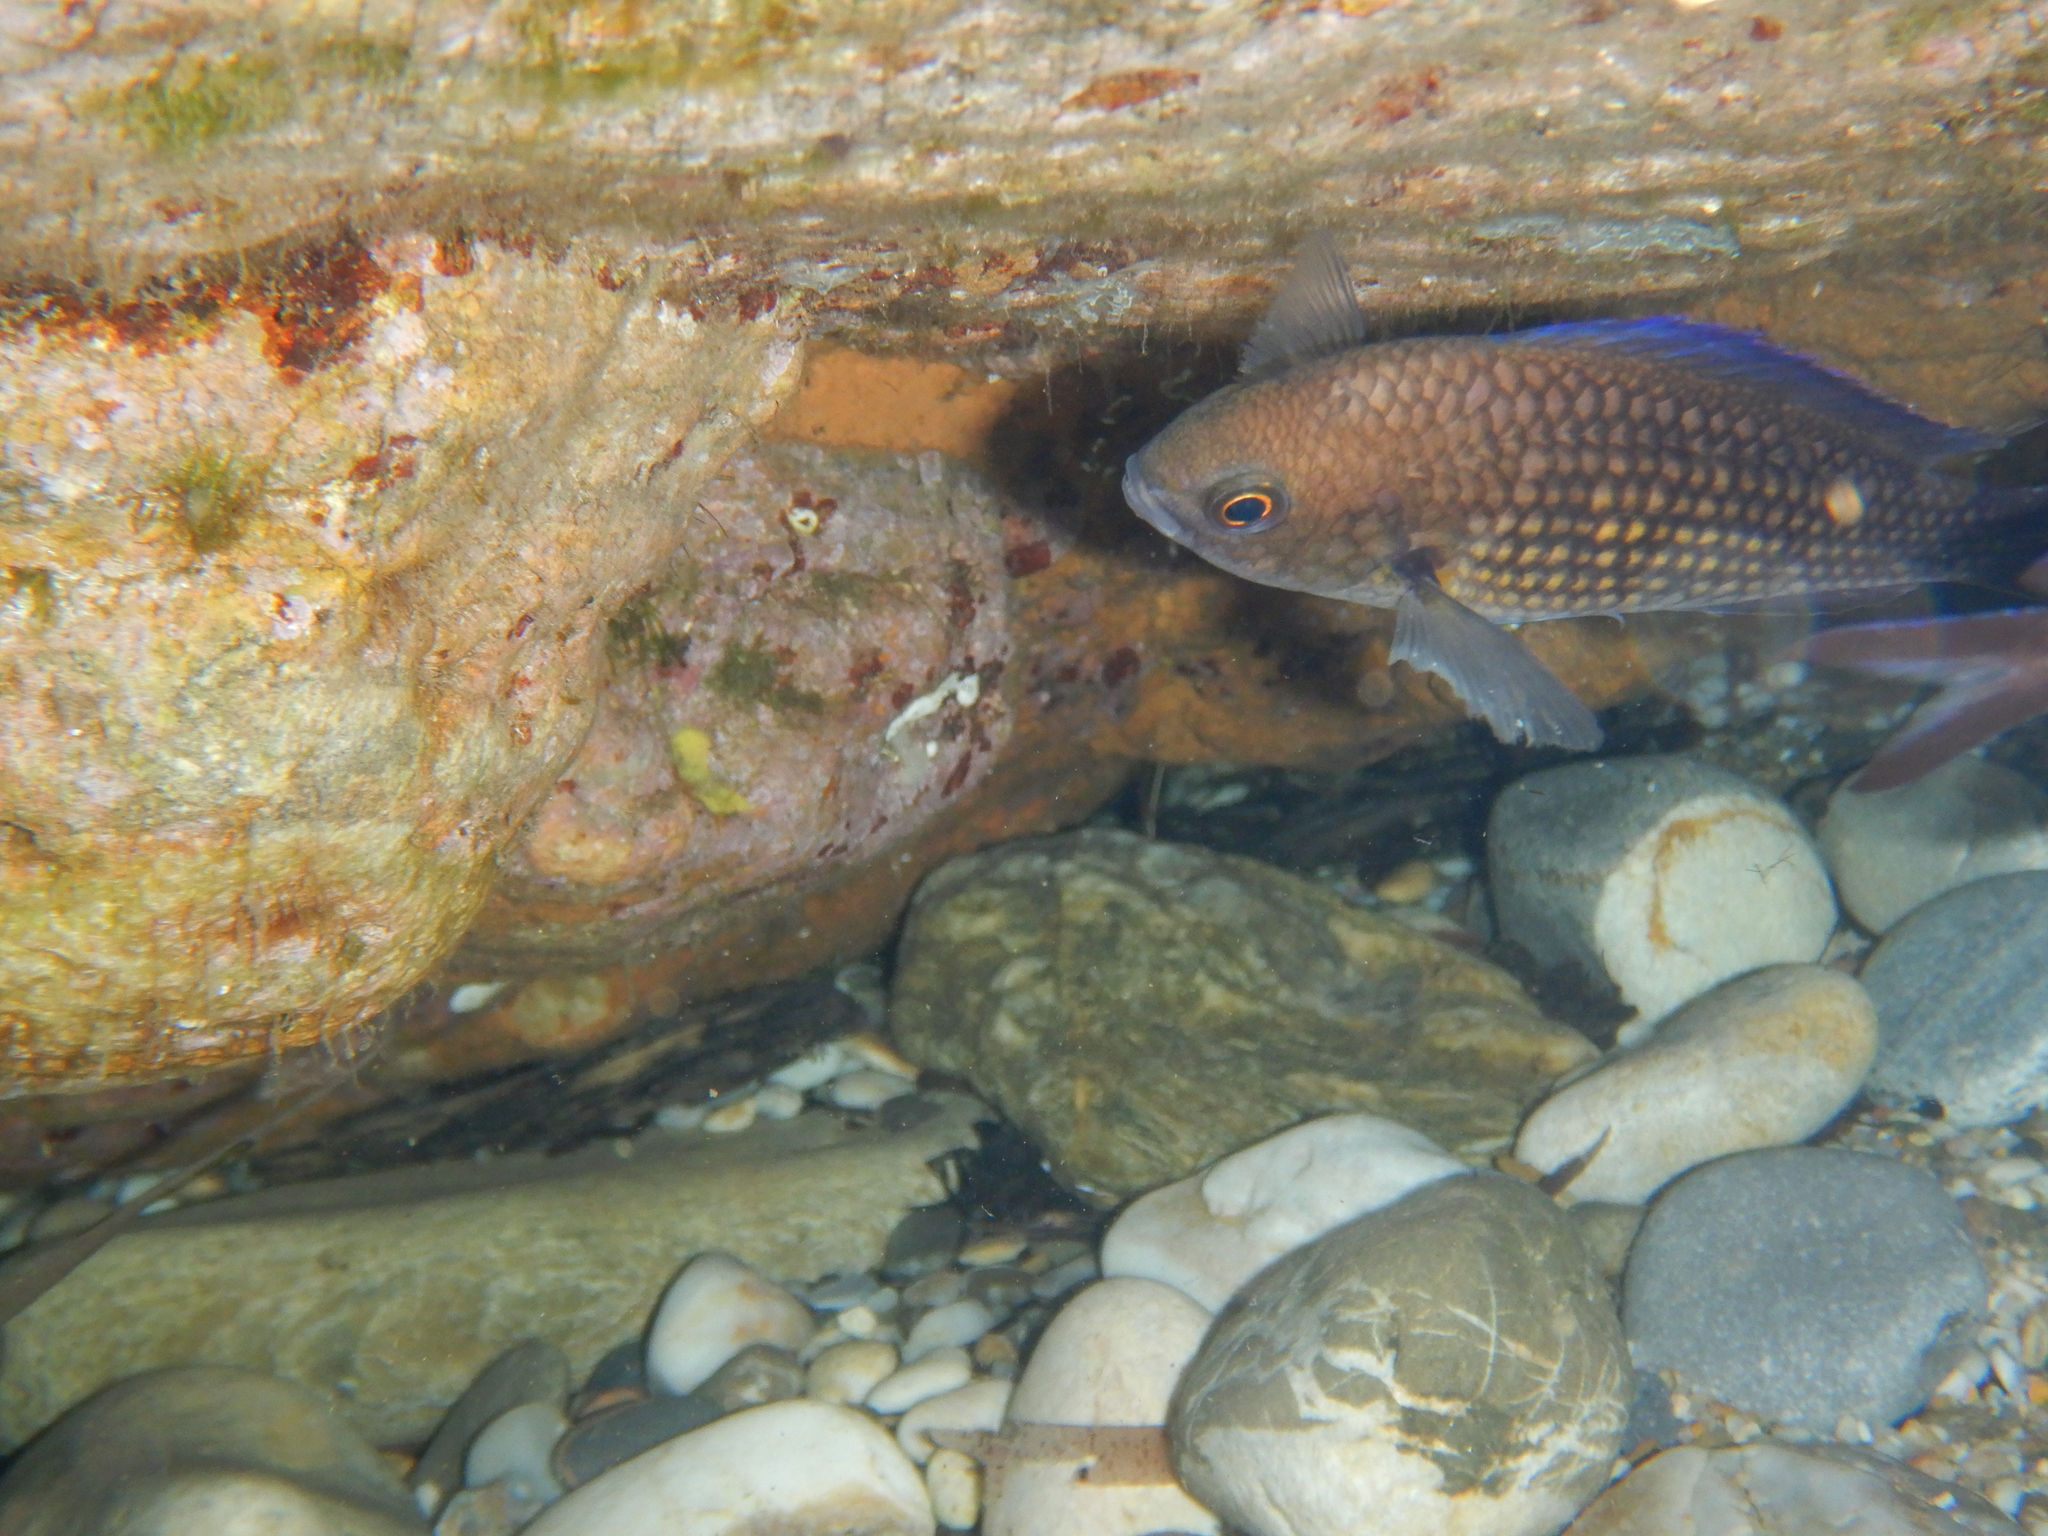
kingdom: Animalia
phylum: Chordata
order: Perciformes
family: Pomacentridae
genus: Chromis
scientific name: Chromis chromis
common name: Damselfish
